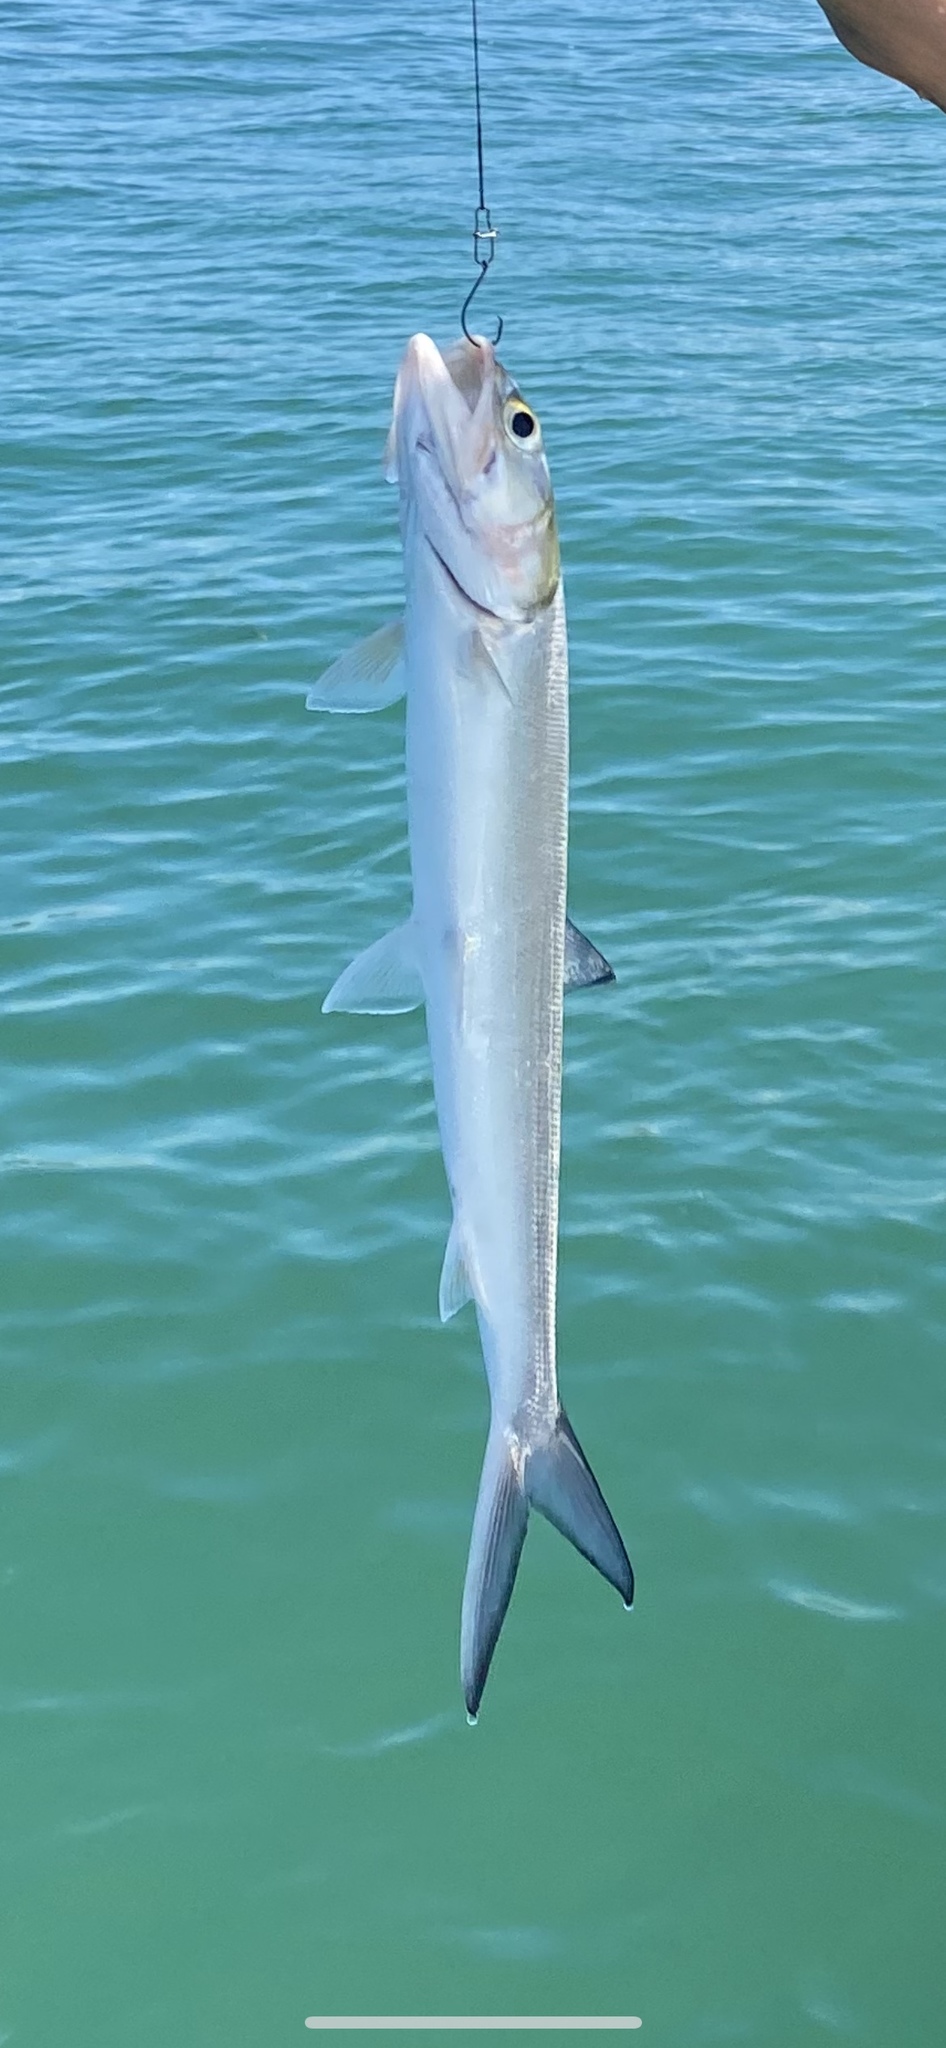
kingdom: Animalia
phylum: Chordata
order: Elopiformes
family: Elopidae
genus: Elops
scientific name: Elops saurus
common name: Ladyfish
